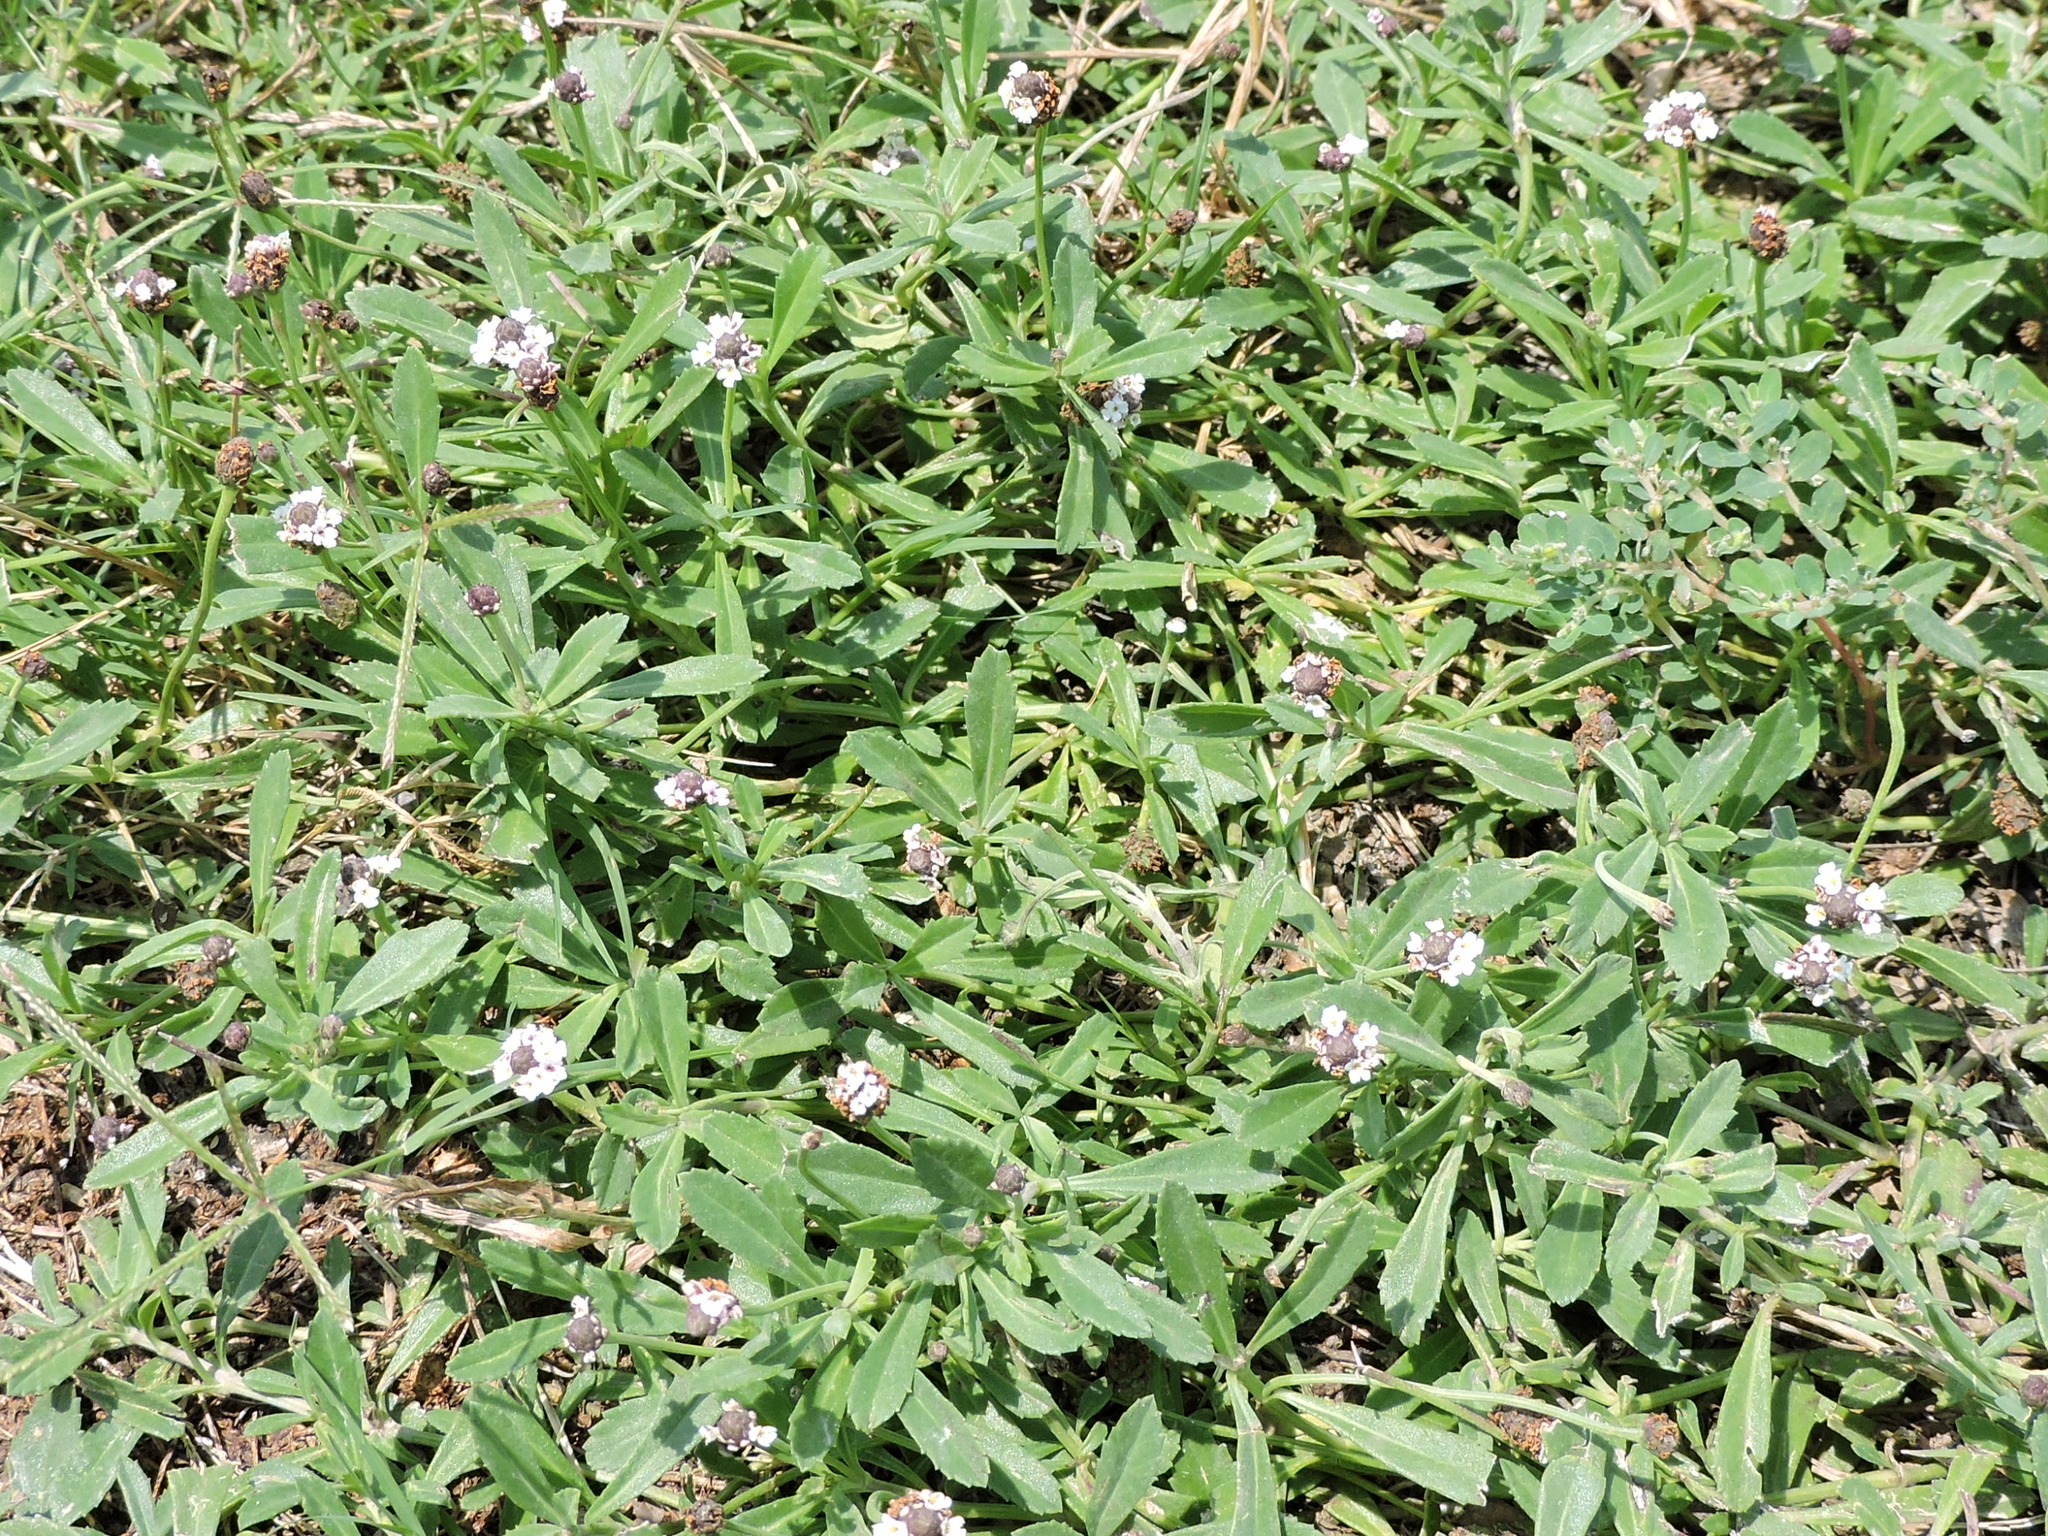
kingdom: Plantae
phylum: Tracheophyta
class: Magnoliopsida
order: Lamiales
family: Verbenaceae
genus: Phyla
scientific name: Phyla nodiflora
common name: Frogfruit
